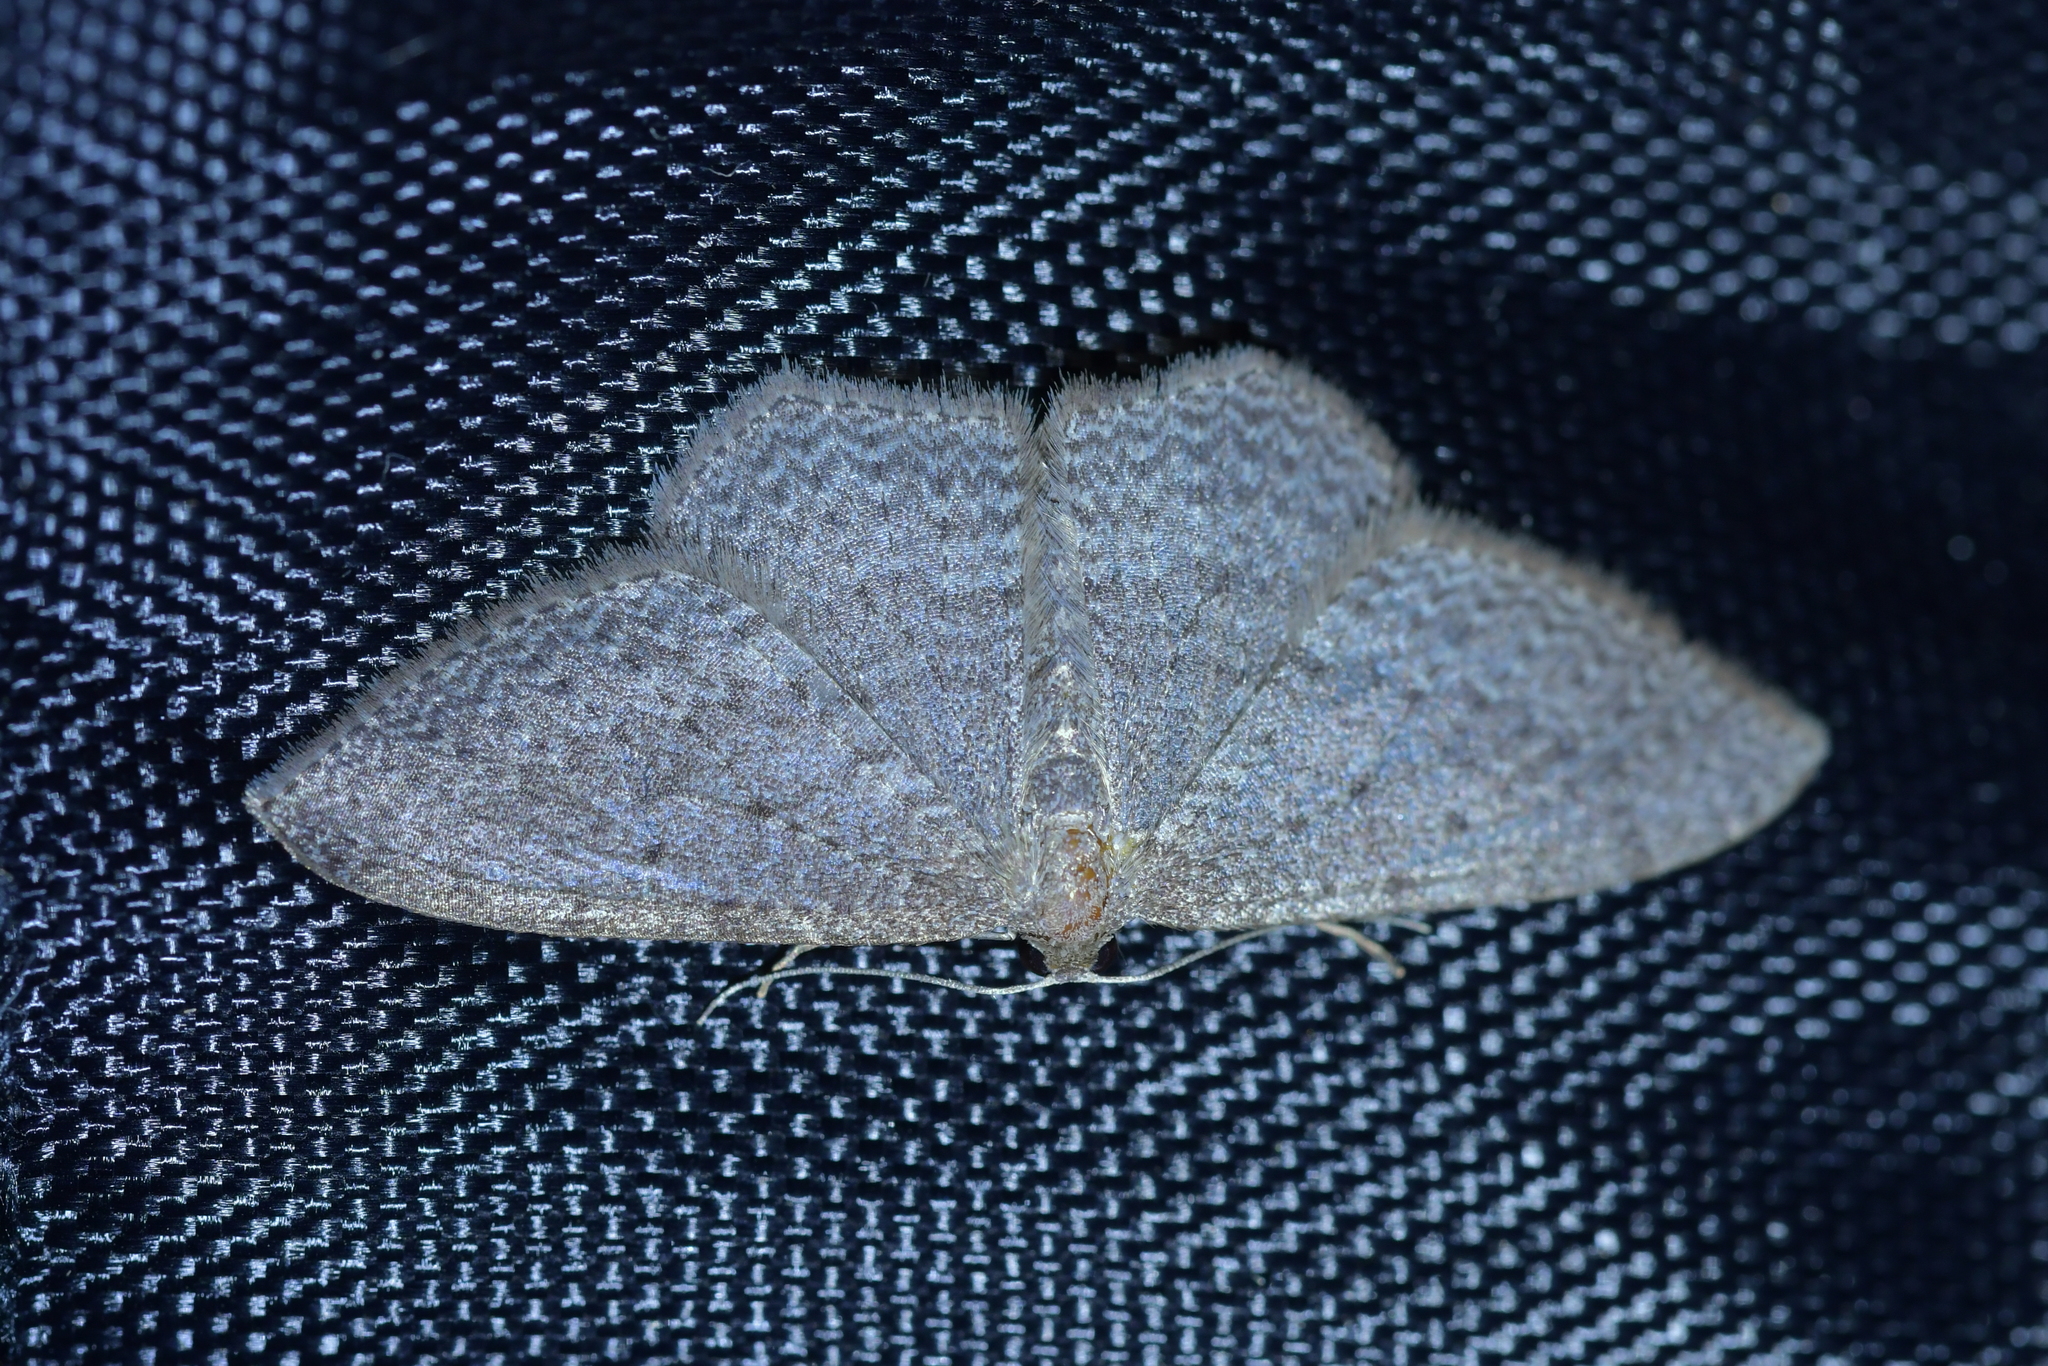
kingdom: Animalia
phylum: Arthropoda
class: Insecta
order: Lepidoptera
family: Geometridae
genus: Poecilasthena
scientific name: Poecilasthena subpurpureata
